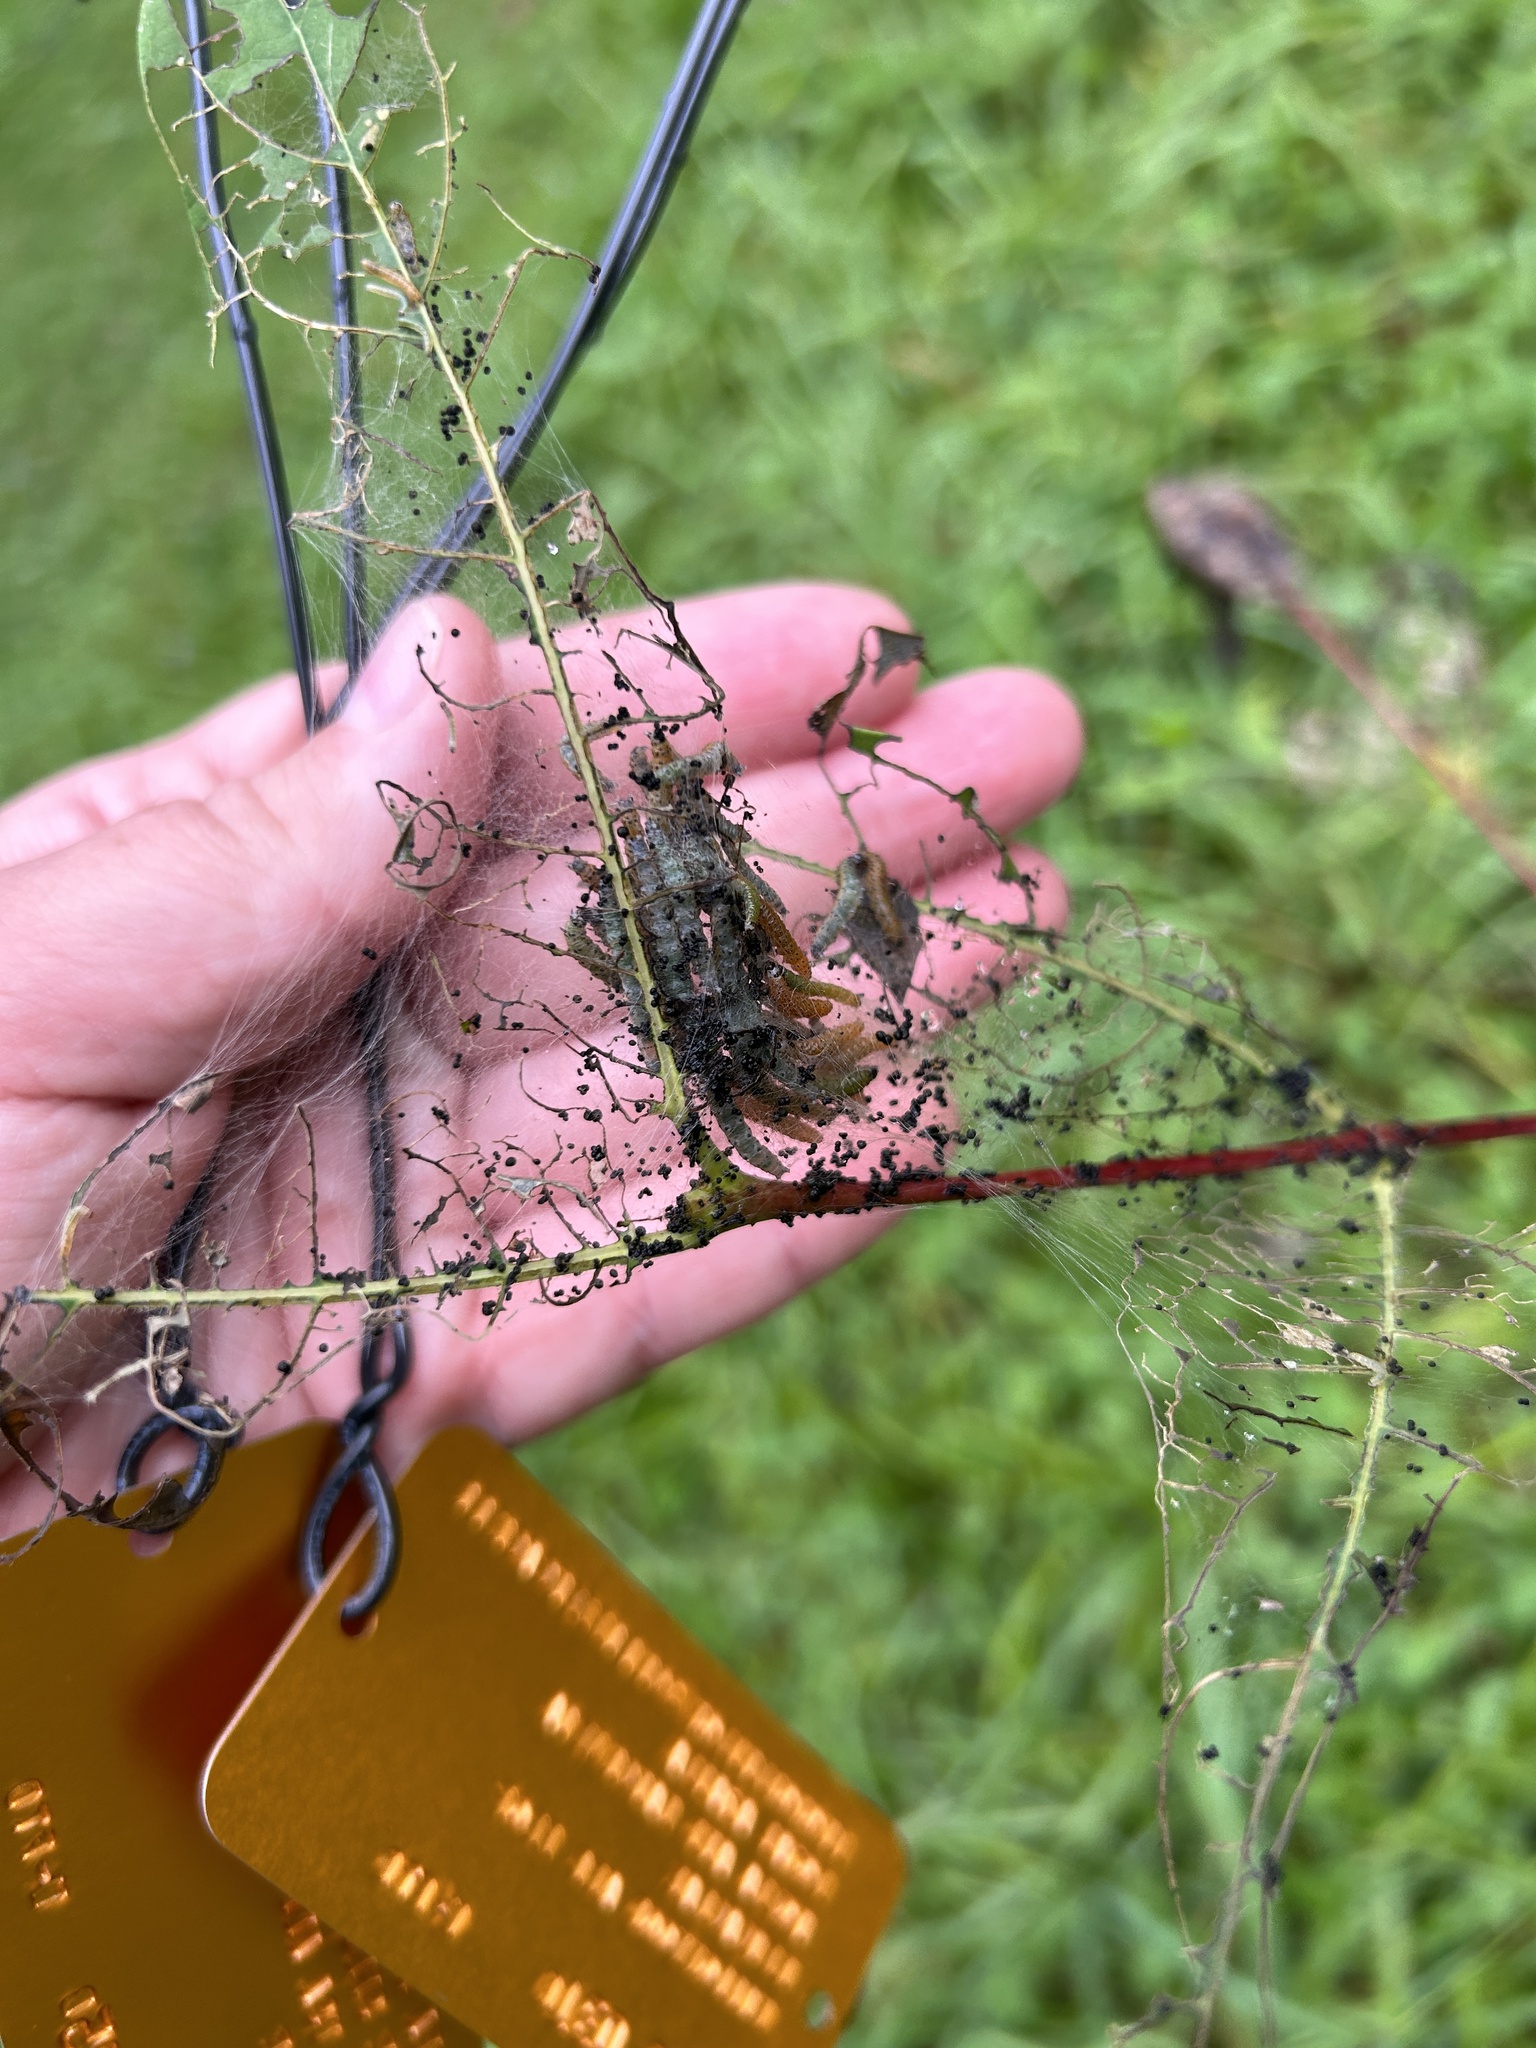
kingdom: Animalia
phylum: Arthropoda
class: Insecta
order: Lepidoptera
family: Crambidae
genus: Saucrobotys
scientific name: Saucrobotys futilalis
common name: Dogbane saucrobotys moth
